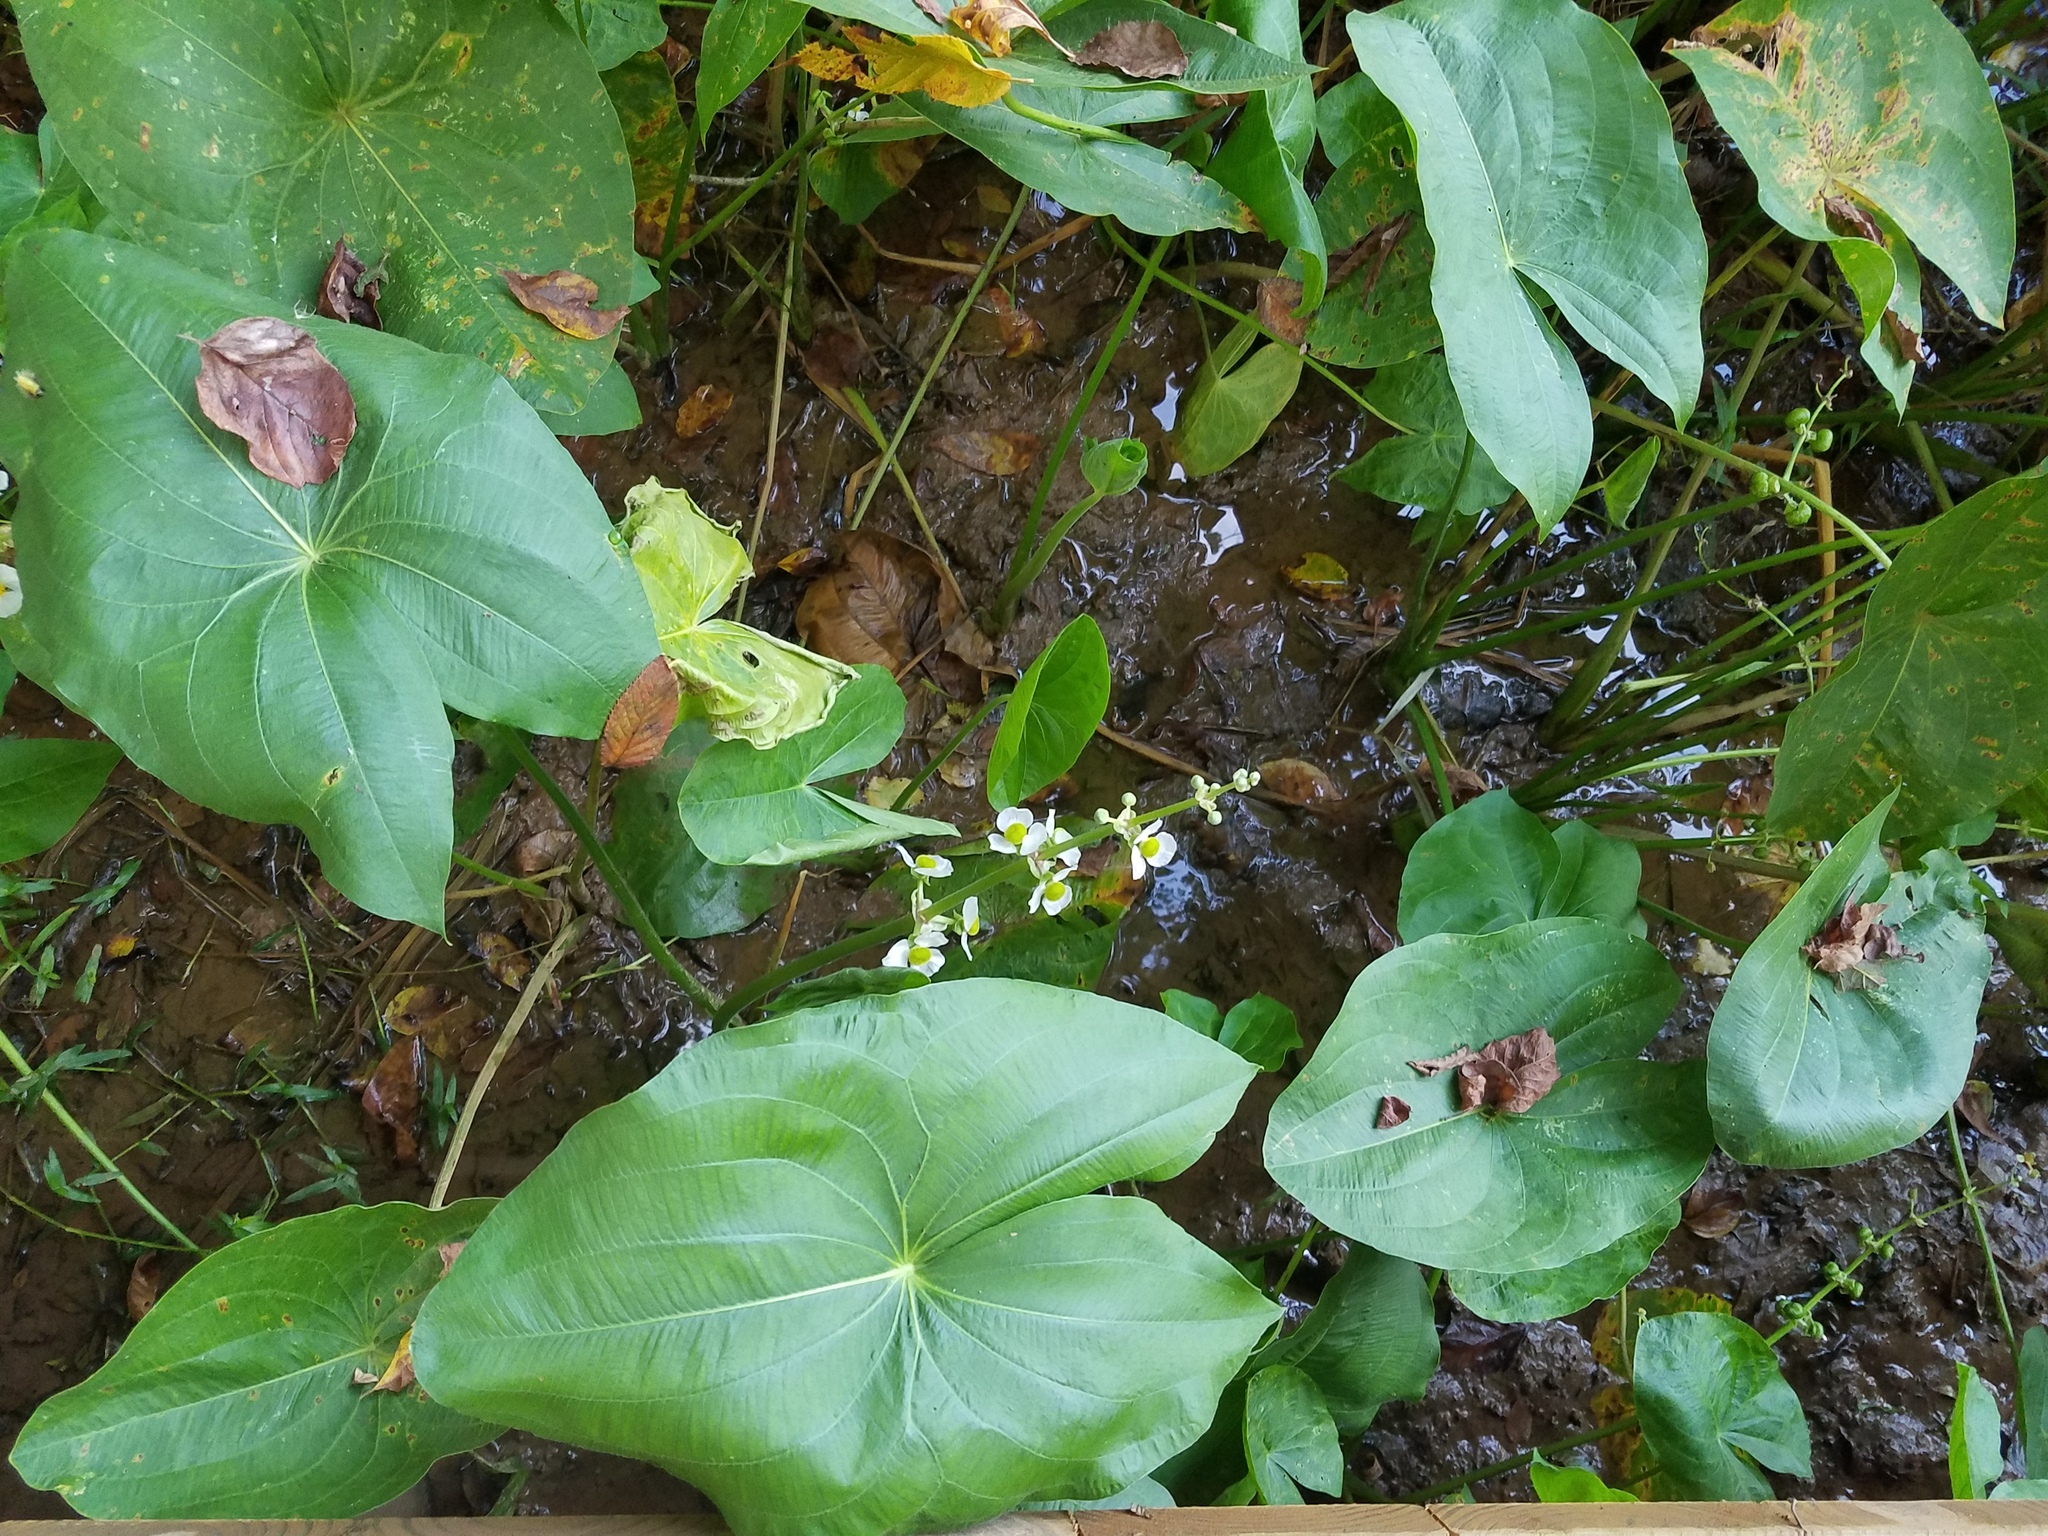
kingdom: Plantae
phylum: Tracheophyta
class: Liliopsida
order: Alismatales
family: Alismataceae
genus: Sagittaria
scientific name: Sagittaria latifolia
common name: Duck-potato
